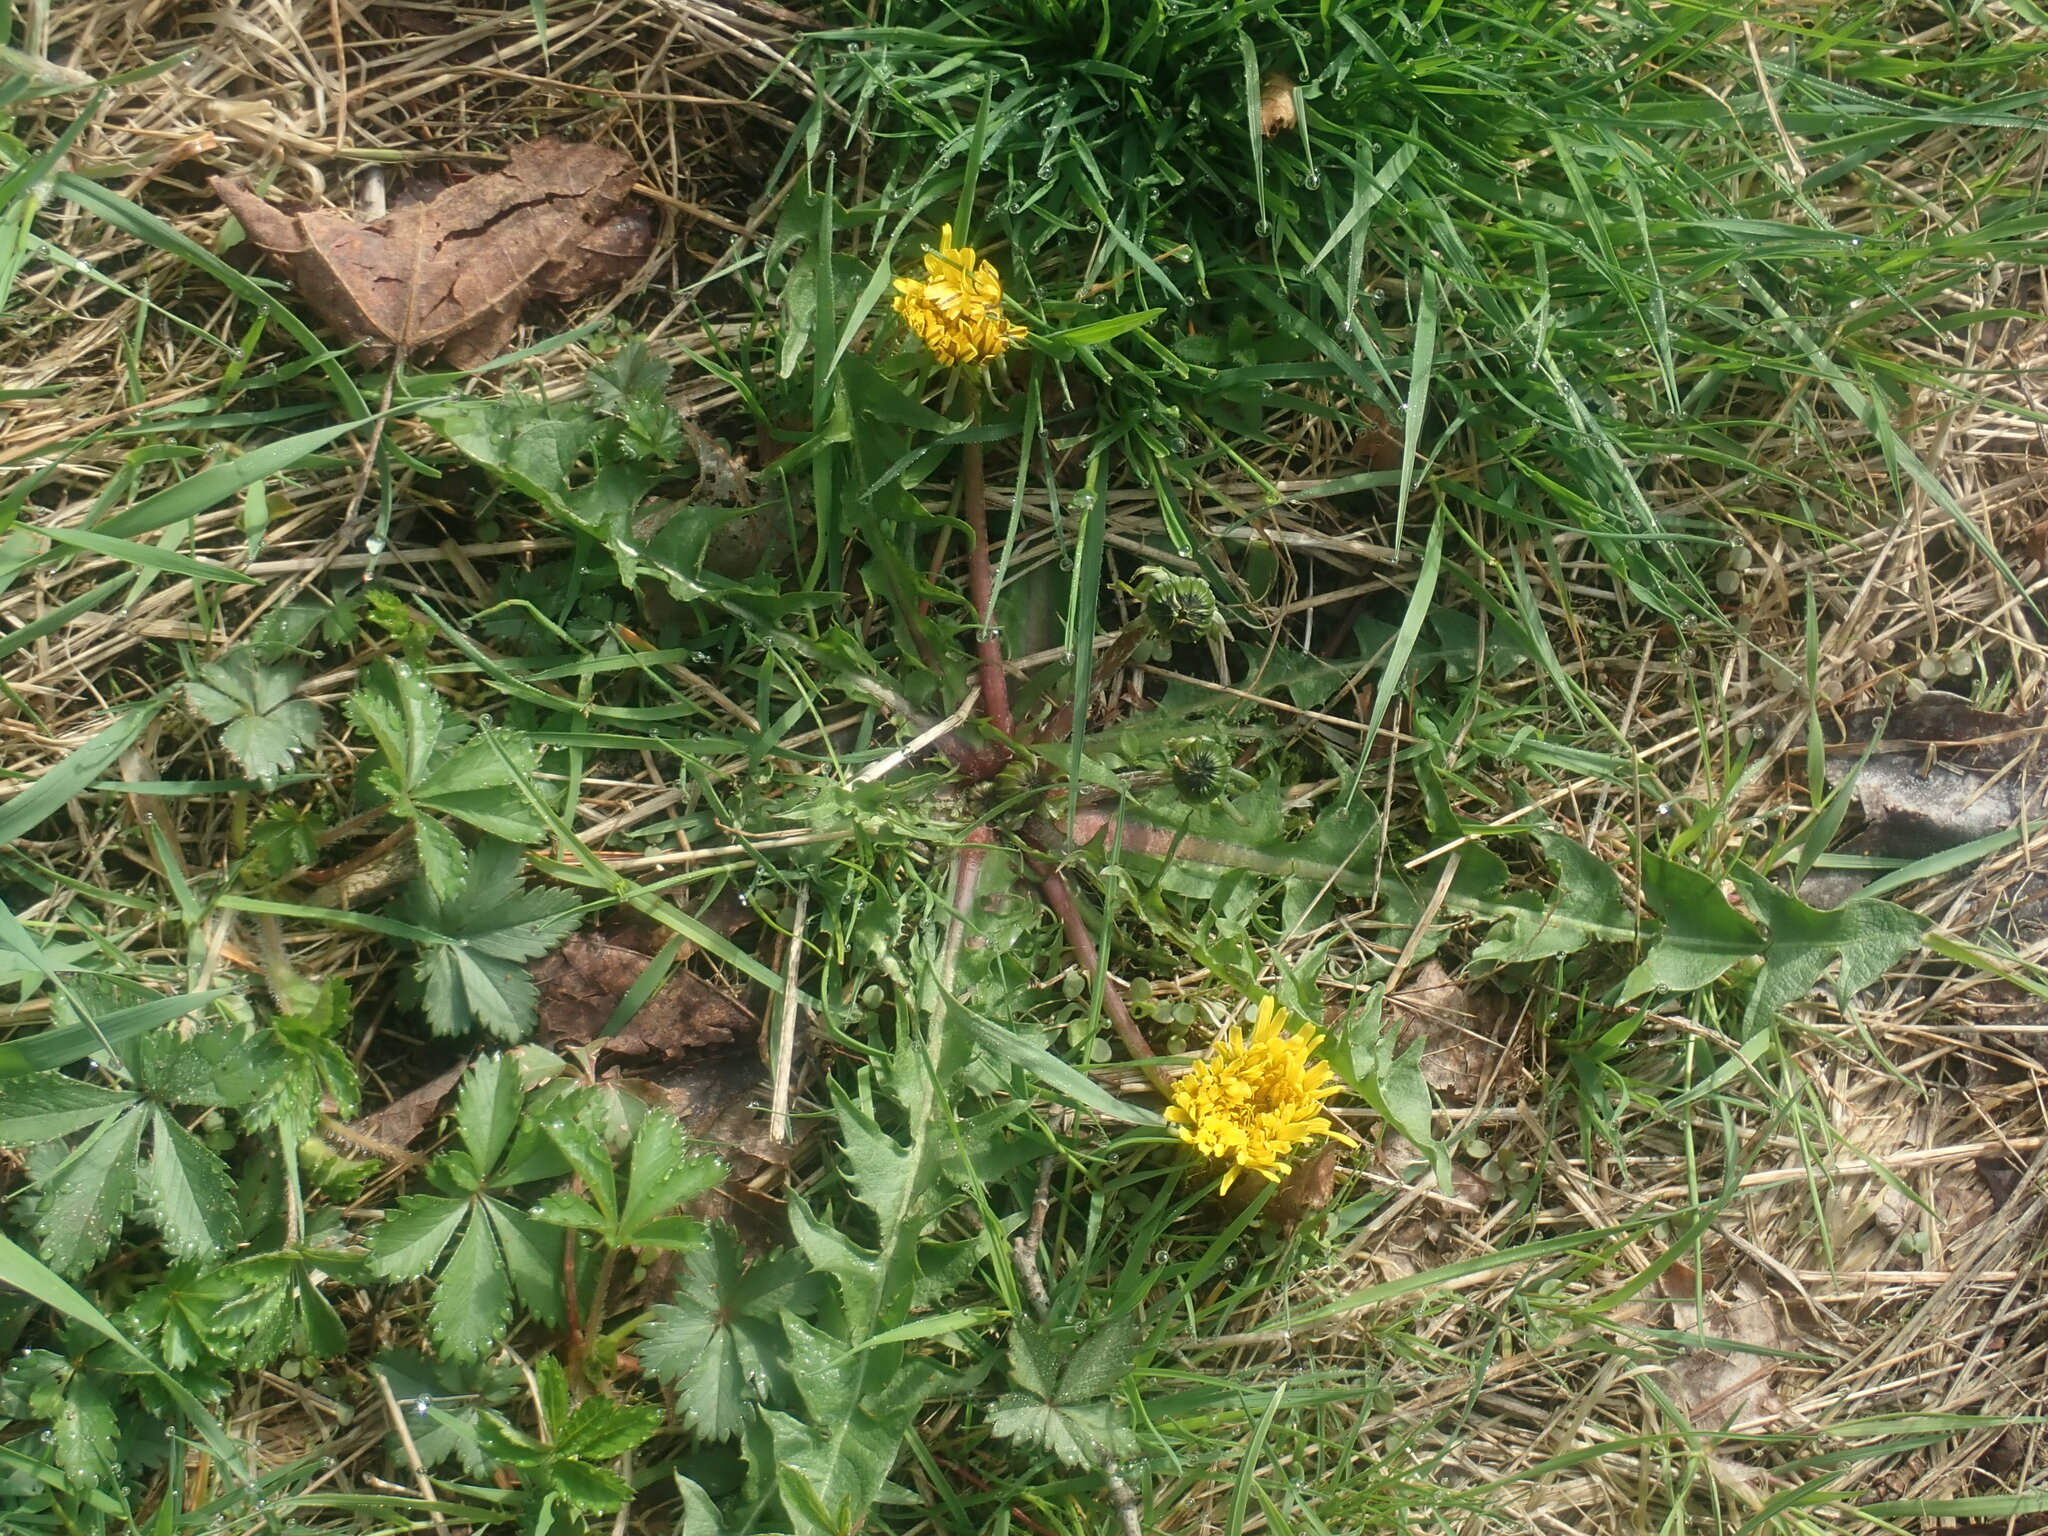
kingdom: Plantae
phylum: Tracheophyta
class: Magnoliopsida
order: Asterales
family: Asteraceae
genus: Taraxacum
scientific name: Taraxacum
